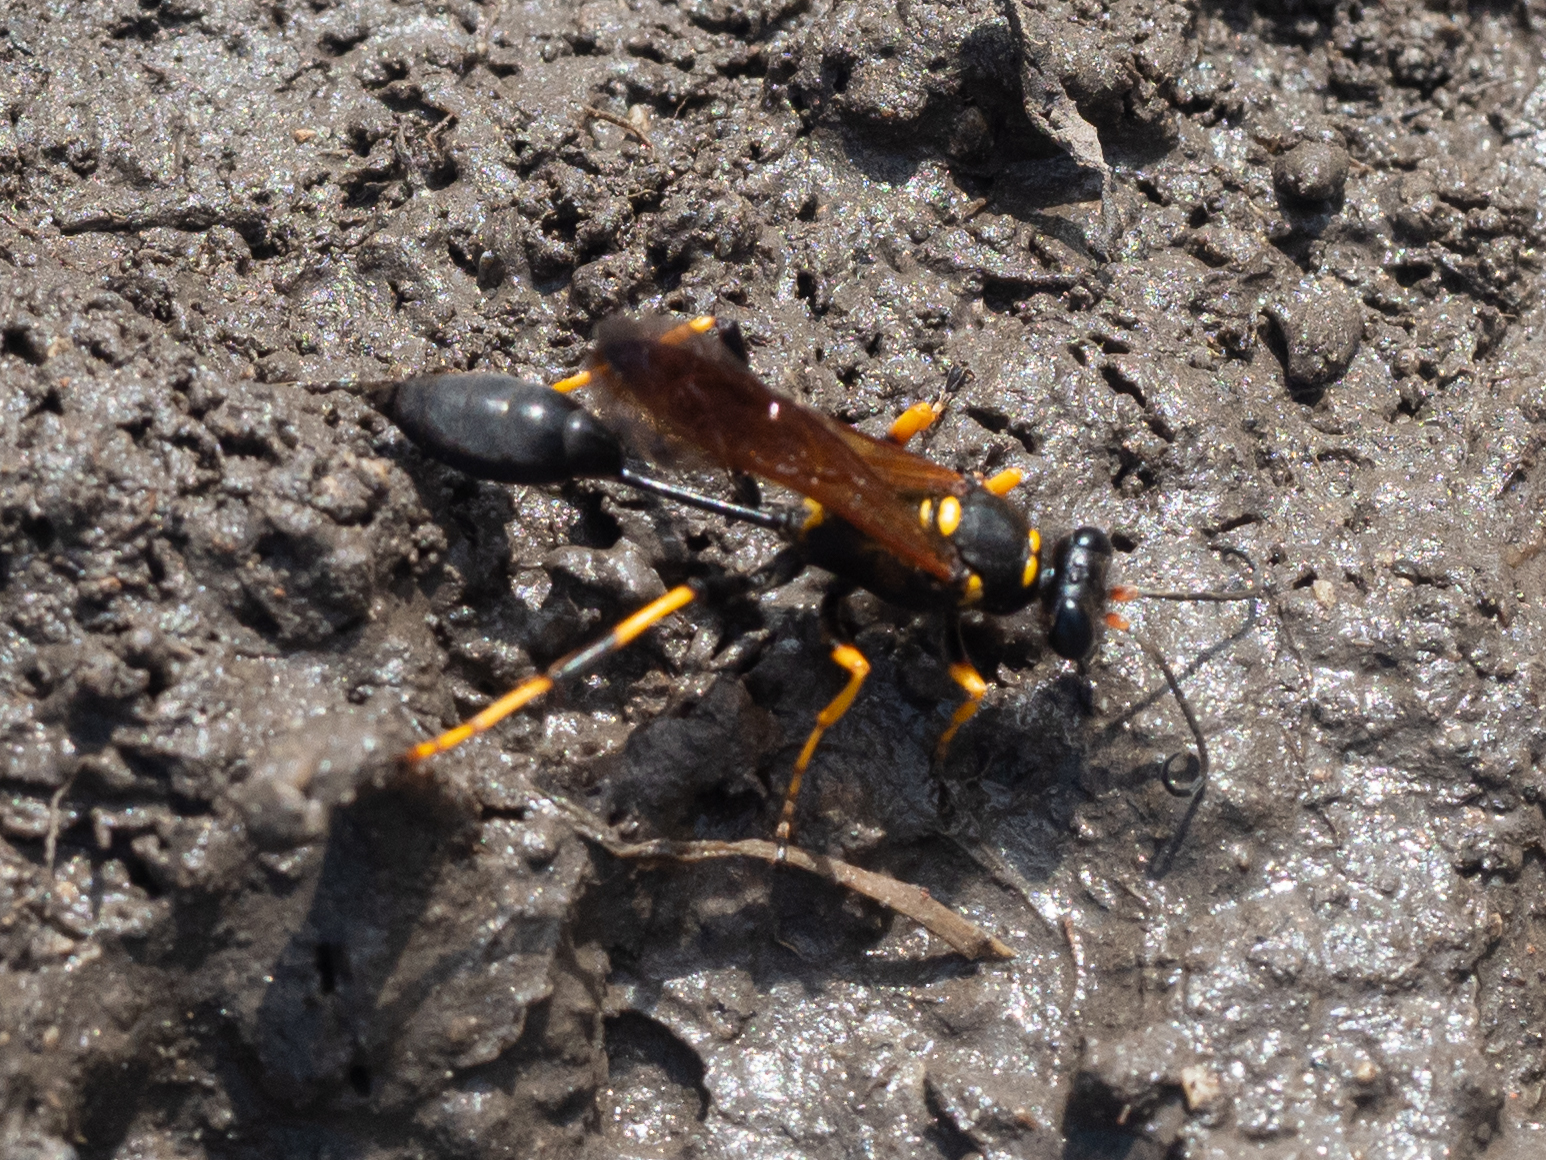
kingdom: Animalia
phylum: Arthropoda
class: Insecta
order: Hymenoptera
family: Sphecidae
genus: Sceliphron
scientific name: Sceliphron caementarium
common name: Mud dauber
